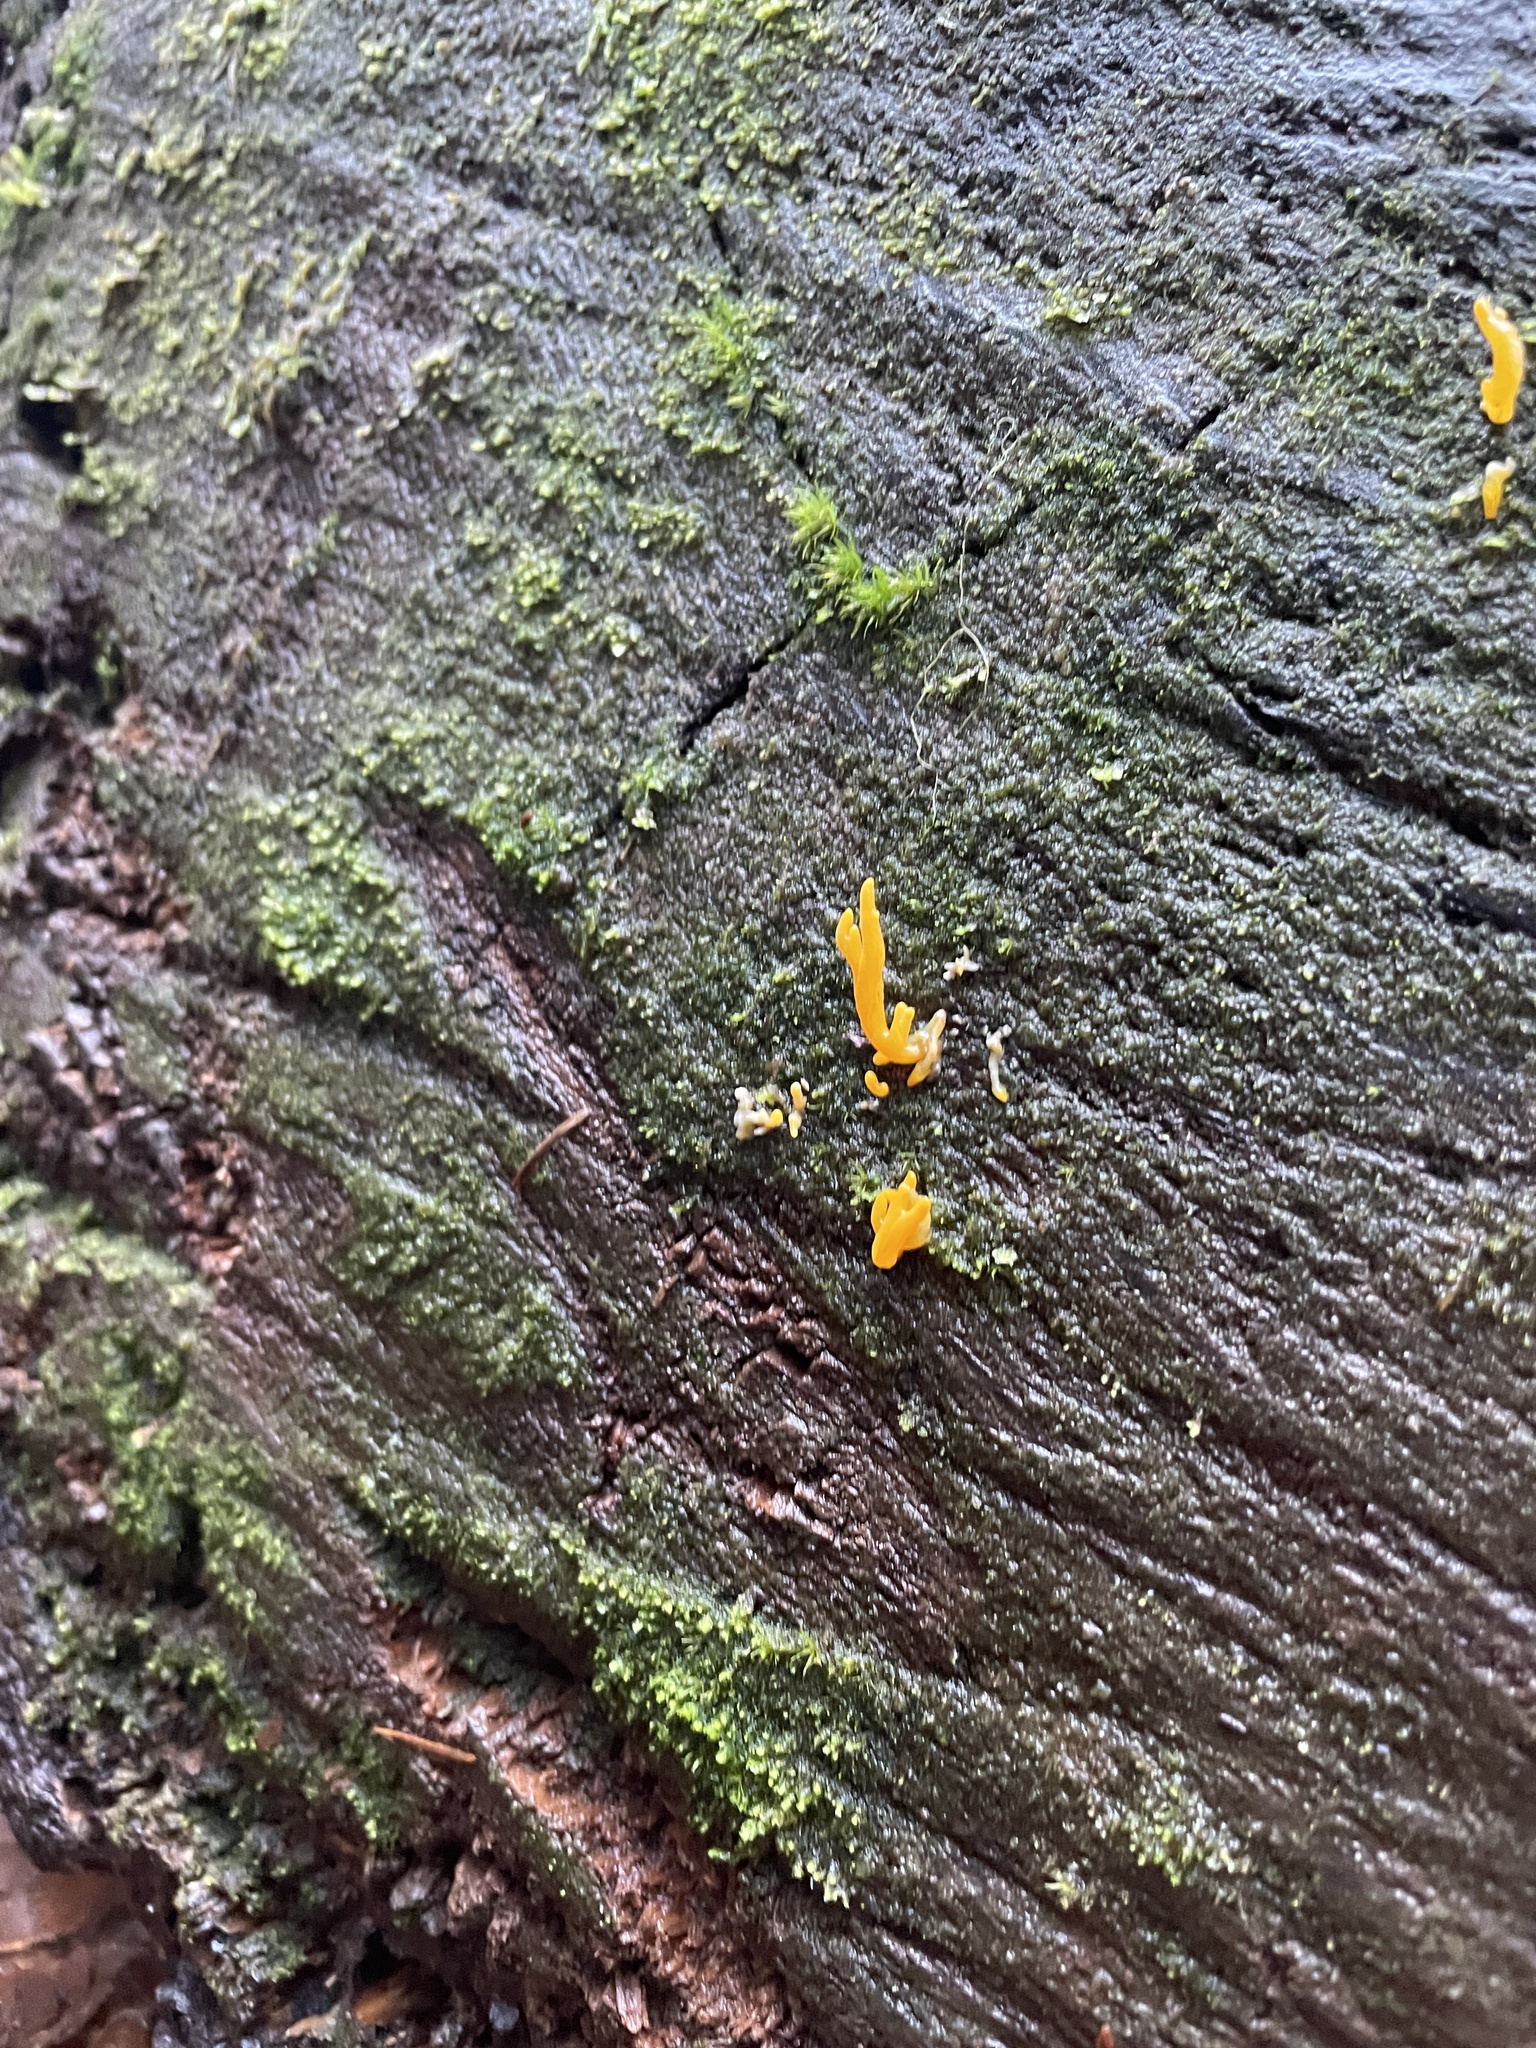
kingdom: Fungi
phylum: Basidiomycota
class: Dacrymycetes
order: Dacrymycetales
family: Dacrymycetaceae
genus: Calocera
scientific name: Calocera cornea
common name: Small stagshorn
